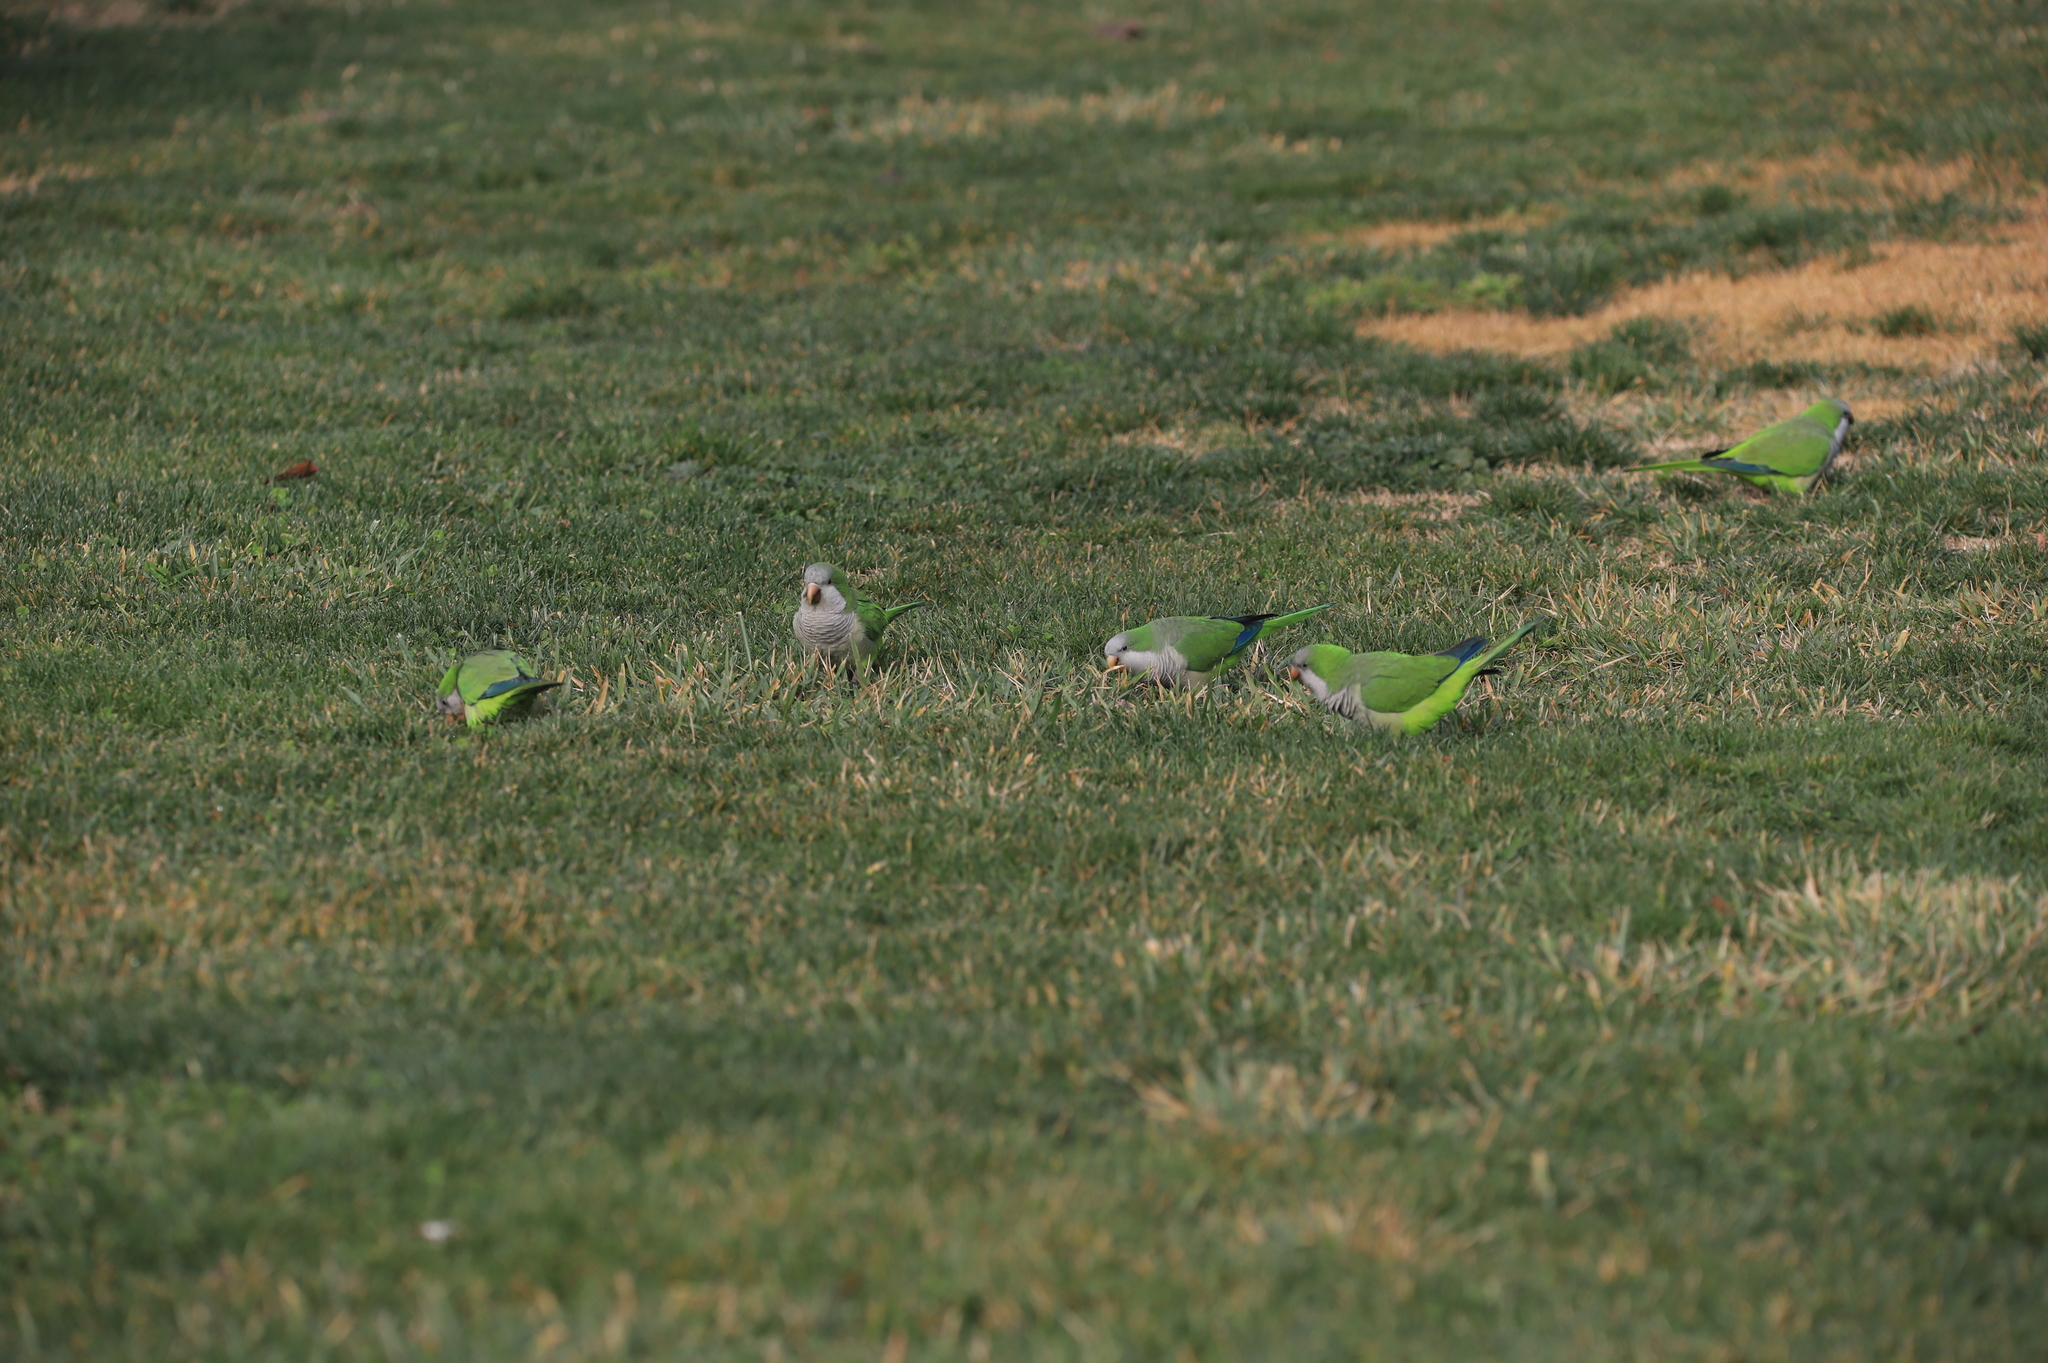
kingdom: Animalia
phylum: Chordata
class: Aves
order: Psittaciformes
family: Psittacidae
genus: Myiopsitta
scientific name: Myiopsitta monachus
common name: Monk parakeet
